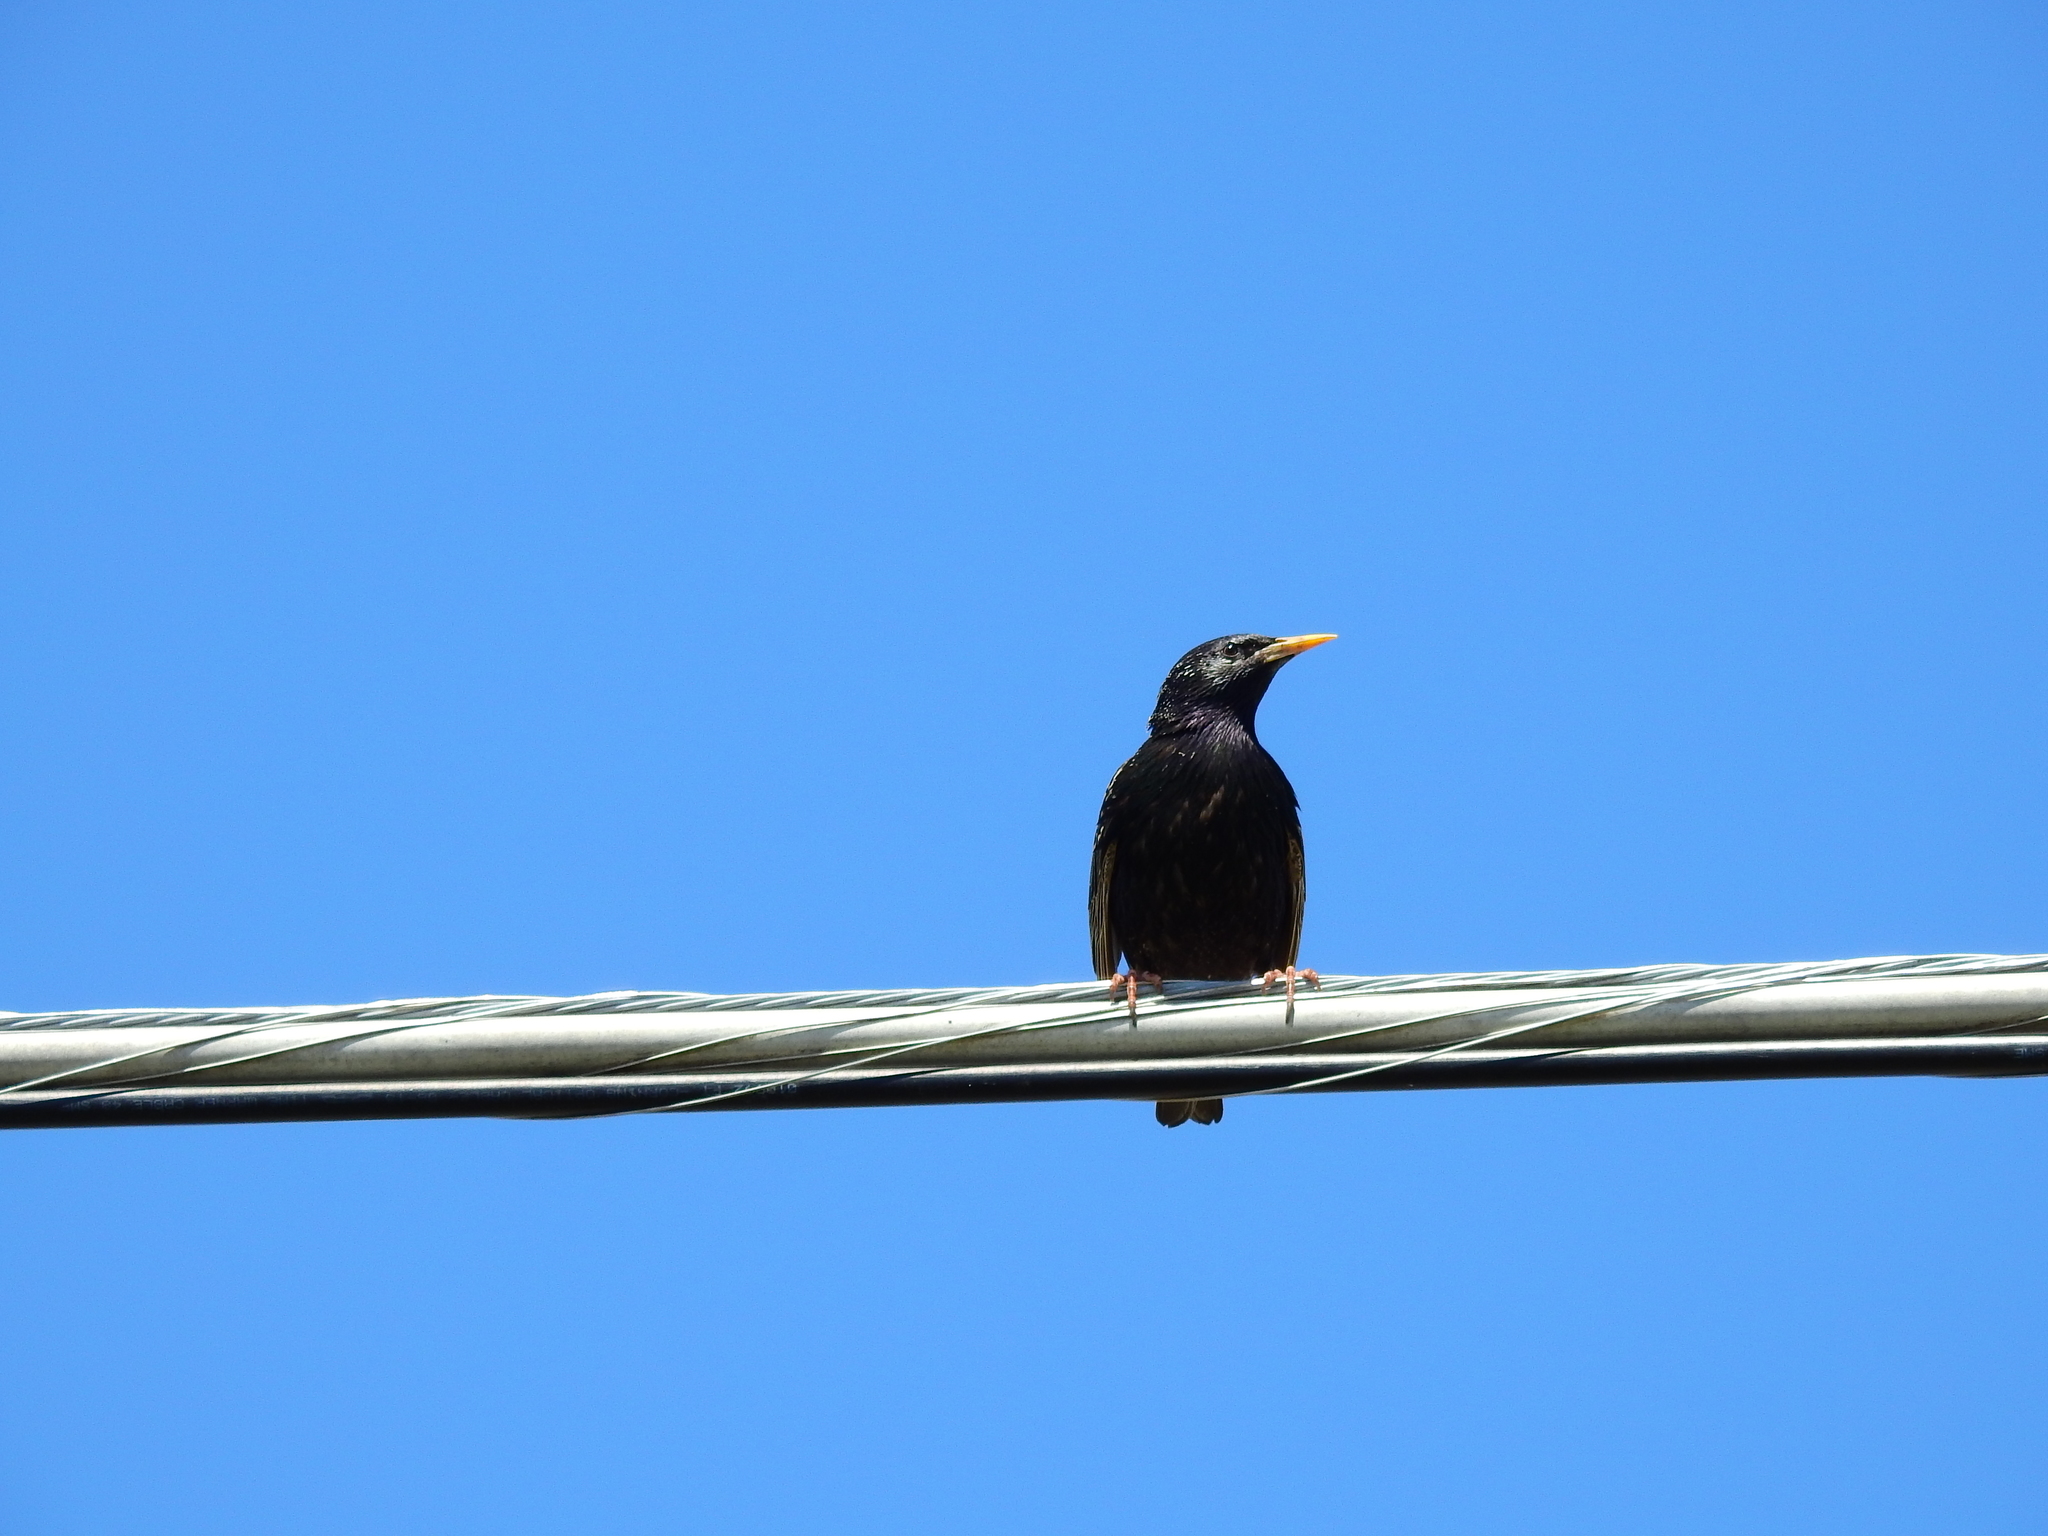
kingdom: Animalia
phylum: Chordata
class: Aves
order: Passeriformes
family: Sturnidae
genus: Sturnus
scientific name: Sturnus vulgaris
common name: Common starling
